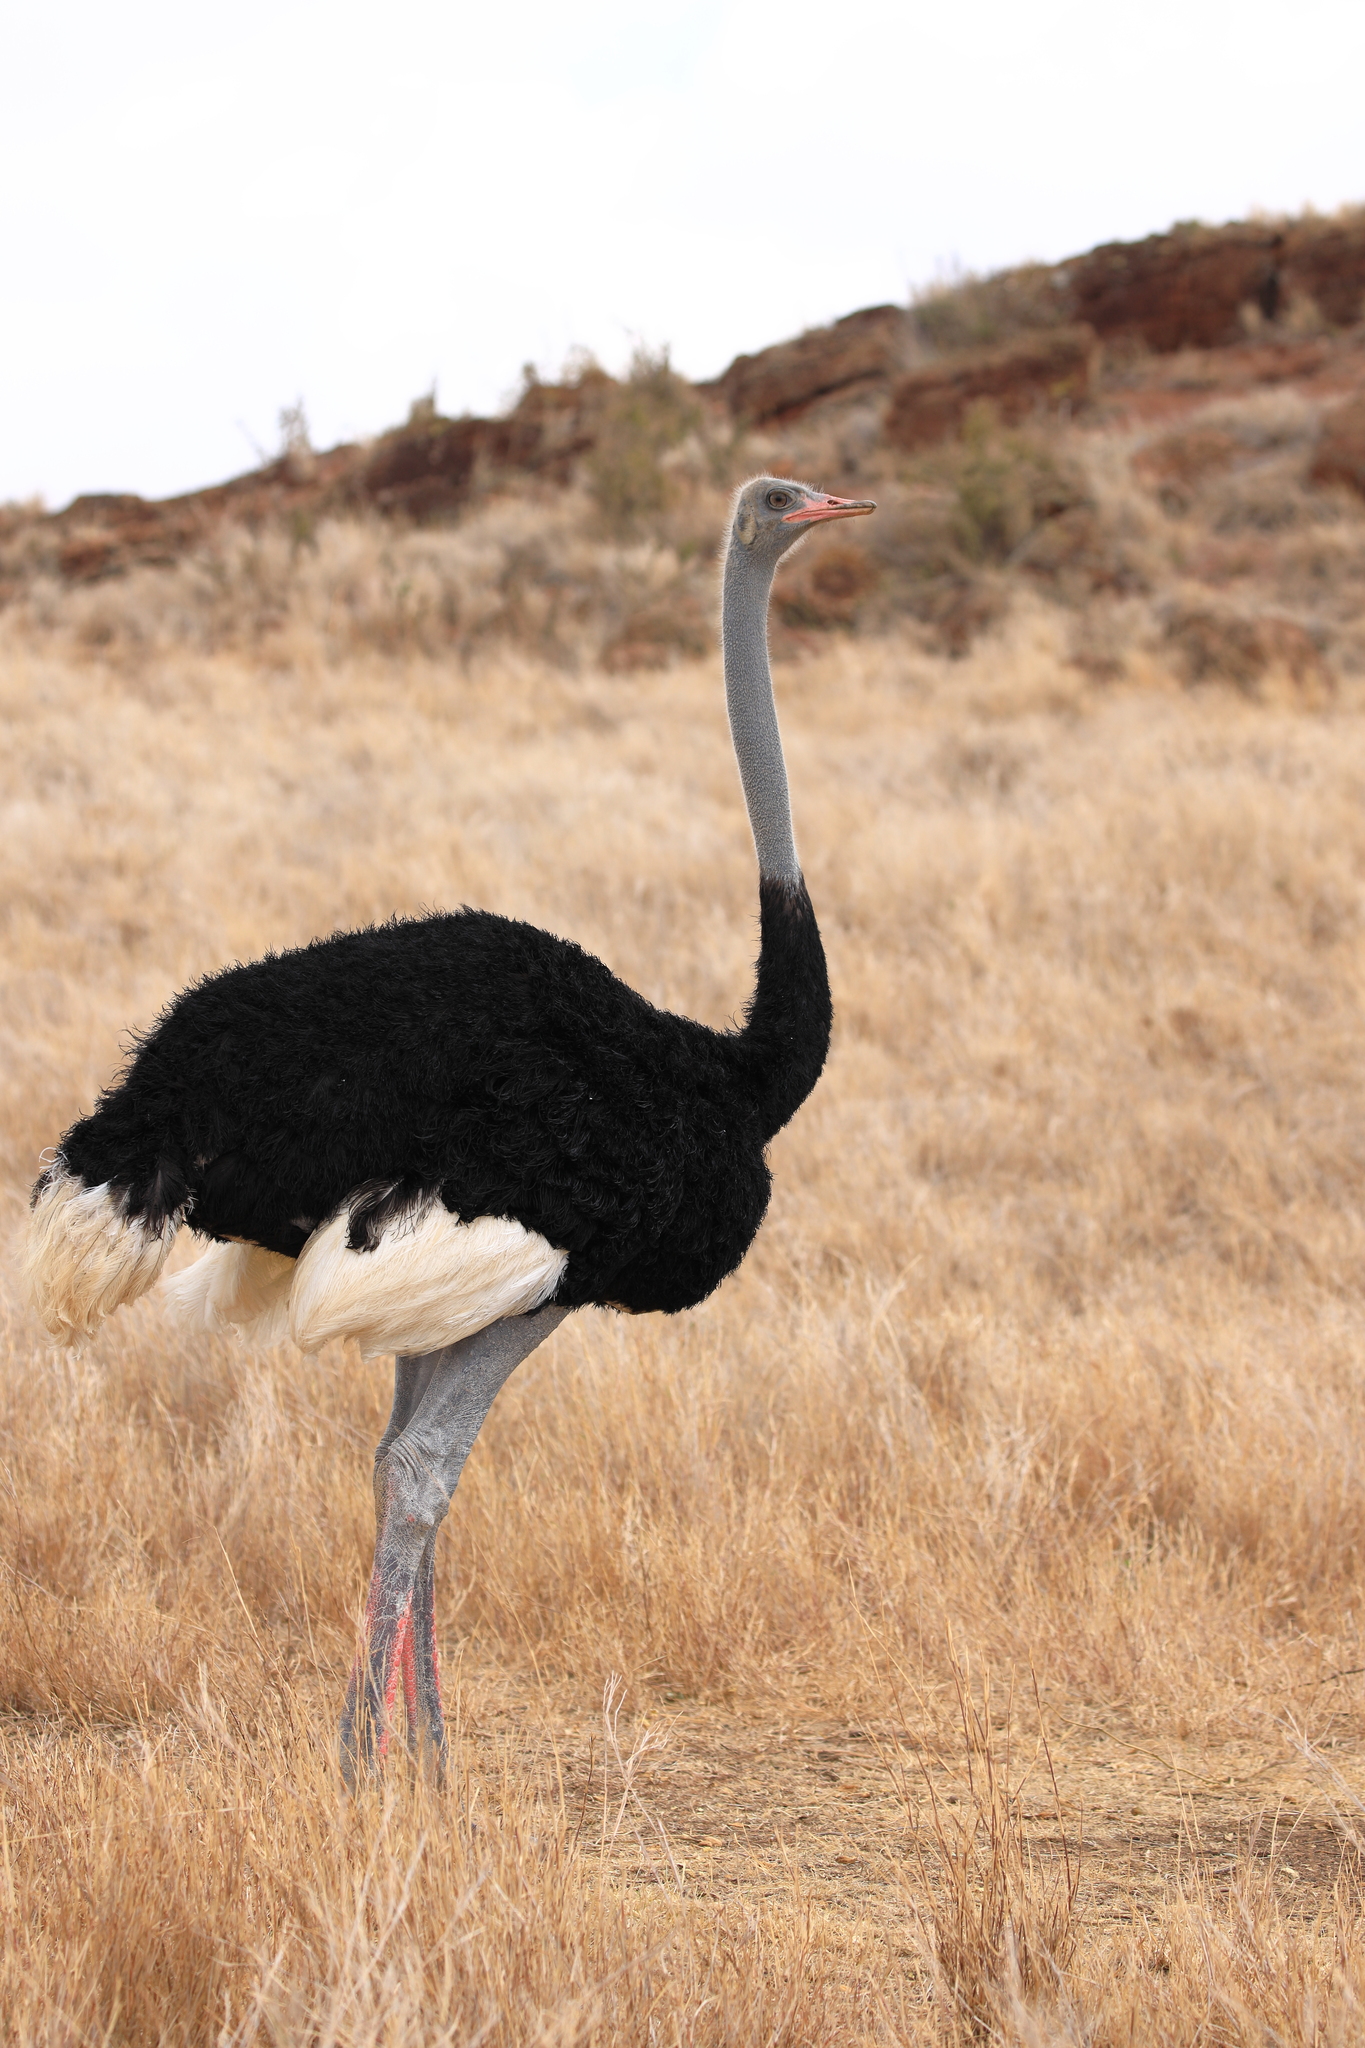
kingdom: Animalia
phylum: Chordata
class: Aves
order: Struthioniformes
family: Struthionidae
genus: Struthio
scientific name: Struthio molybdophanes
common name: Somali ostrich
